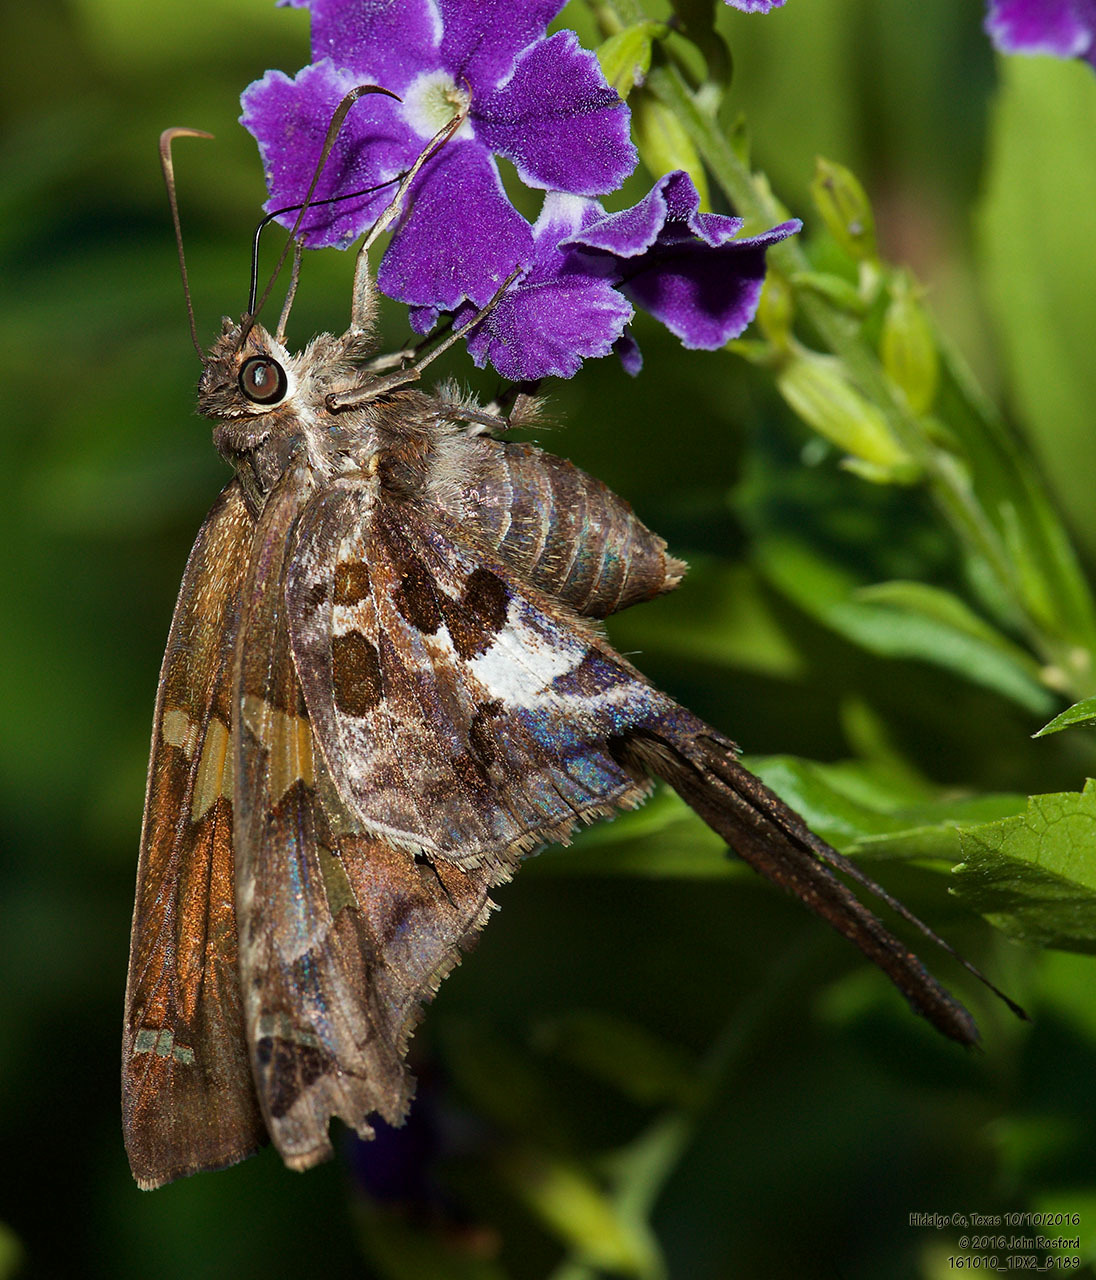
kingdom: Animalia
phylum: Arthropoda
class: Insecta
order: Lepidoptera
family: Hesperiidae
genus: Chioides
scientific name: Chioides zilpa
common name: Zilpa longtail
